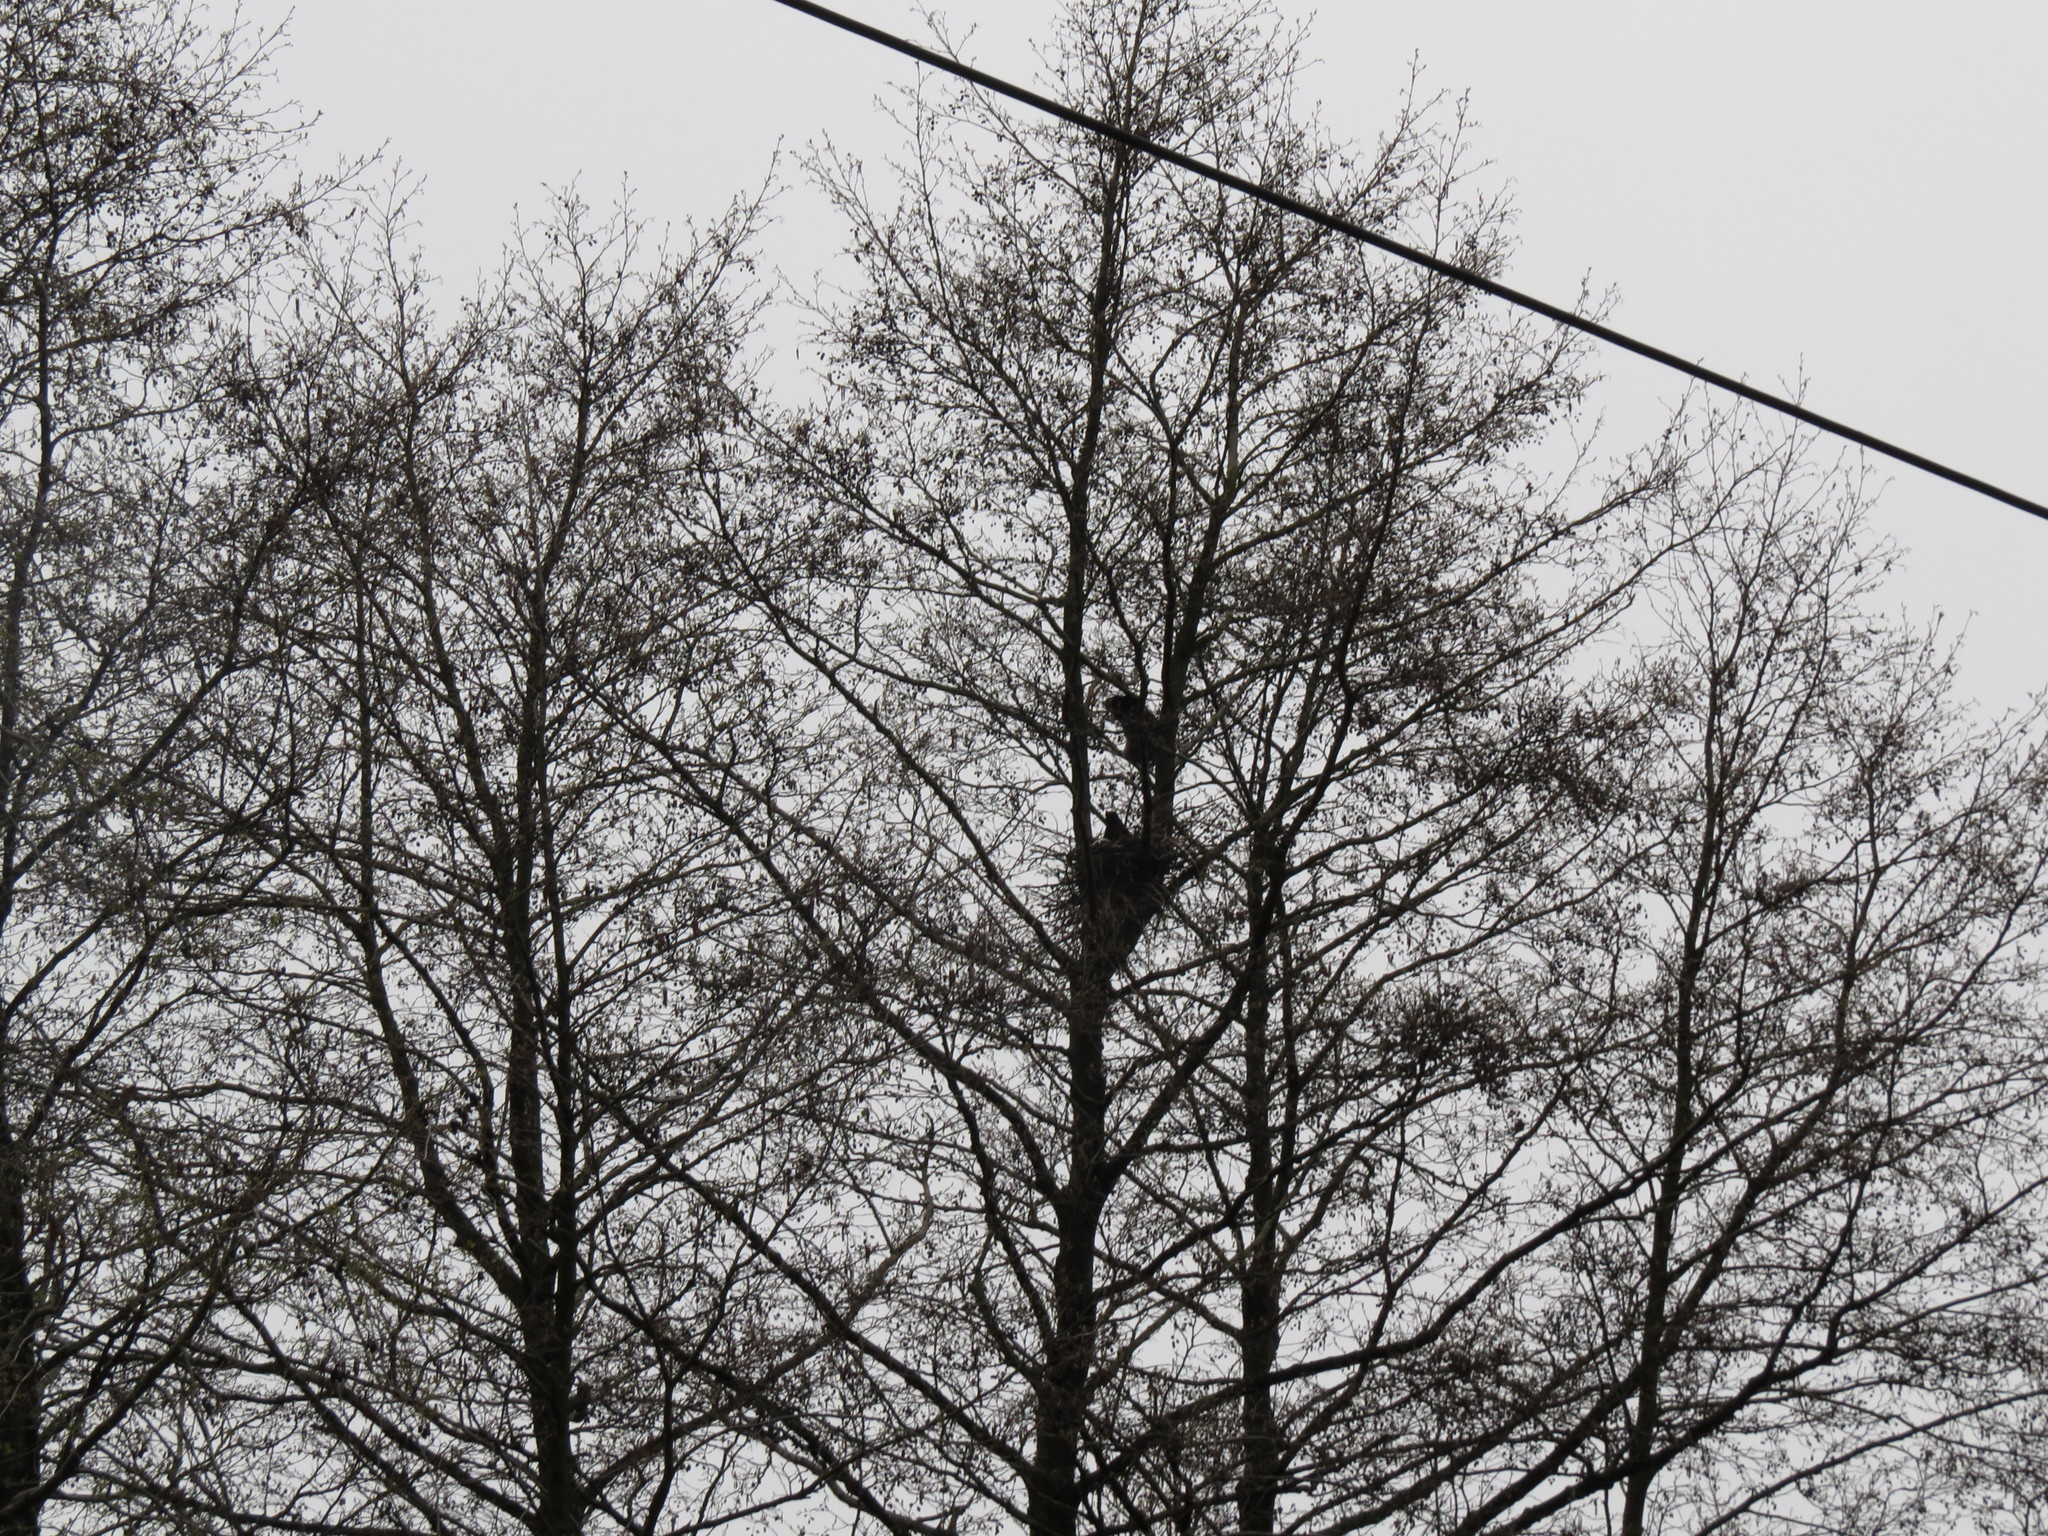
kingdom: Animalia
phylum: Chordata
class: Aves
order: Passeriformes
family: Corvidae
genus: Corvus
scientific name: Corvus cornix
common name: Hooded crow
